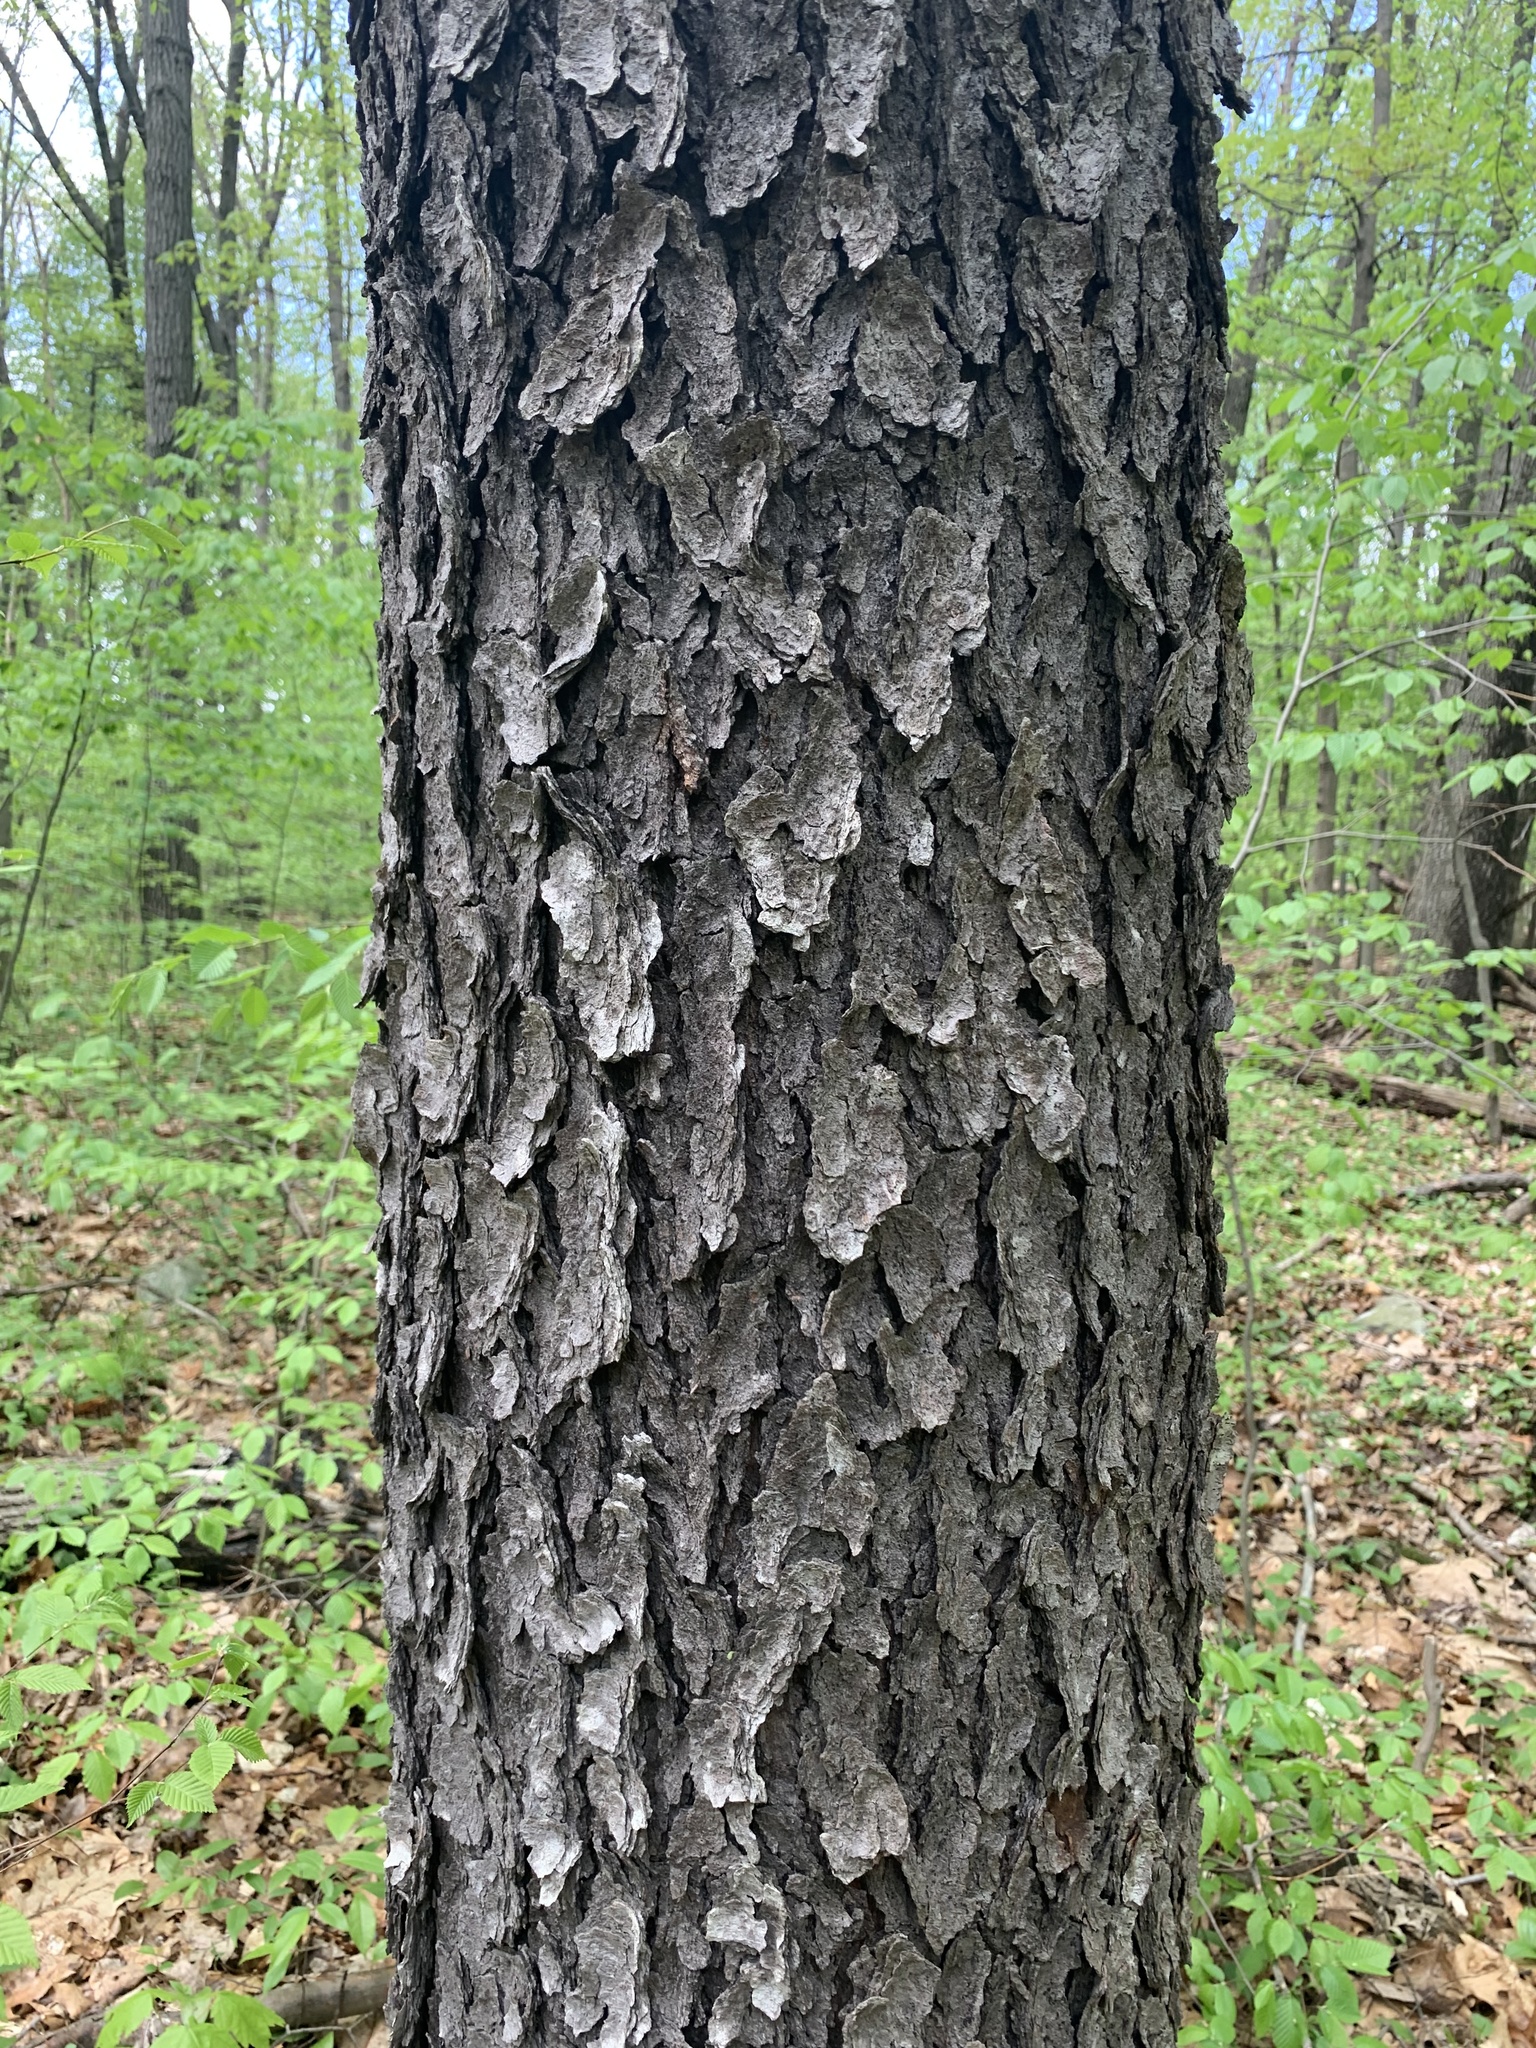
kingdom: Plantae
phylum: Tracheophyta
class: Magnoliopsida
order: Rosales
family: Rosaceae
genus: Prunus
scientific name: Prunus serotina
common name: Black cherry
